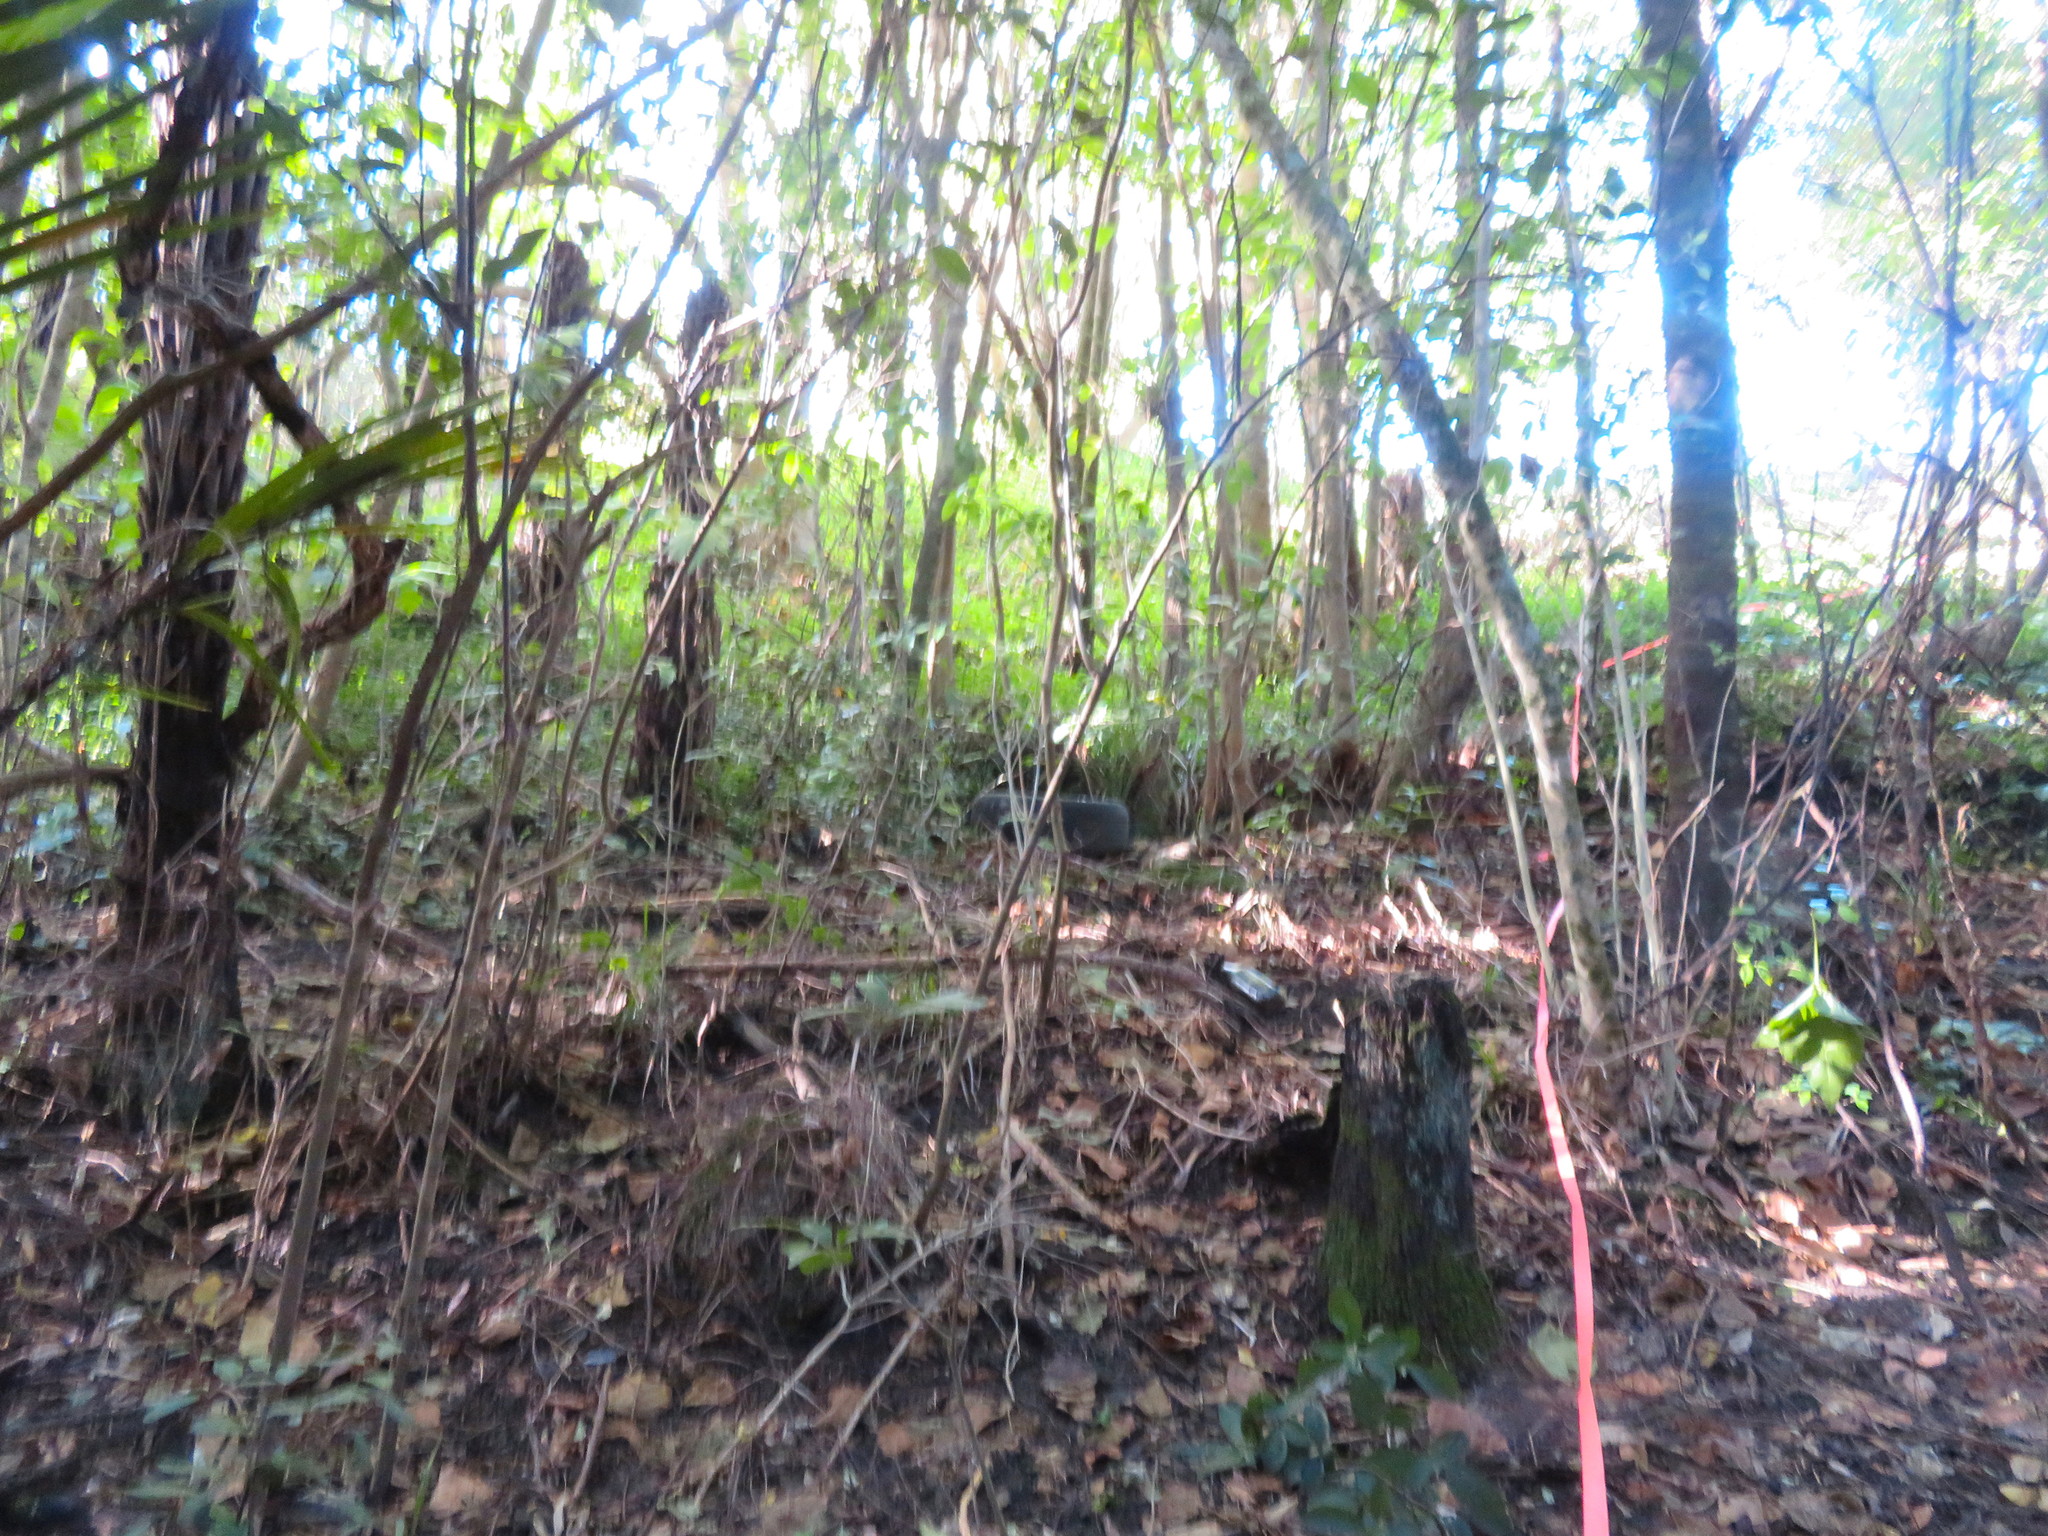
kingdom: Plantae
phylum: Tracheophyta
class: Liliopsida
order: Arecales
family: Arecaceae
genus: Rhopalostylis
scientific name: Rhopalostylis sapida
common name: Feather-duster palm
